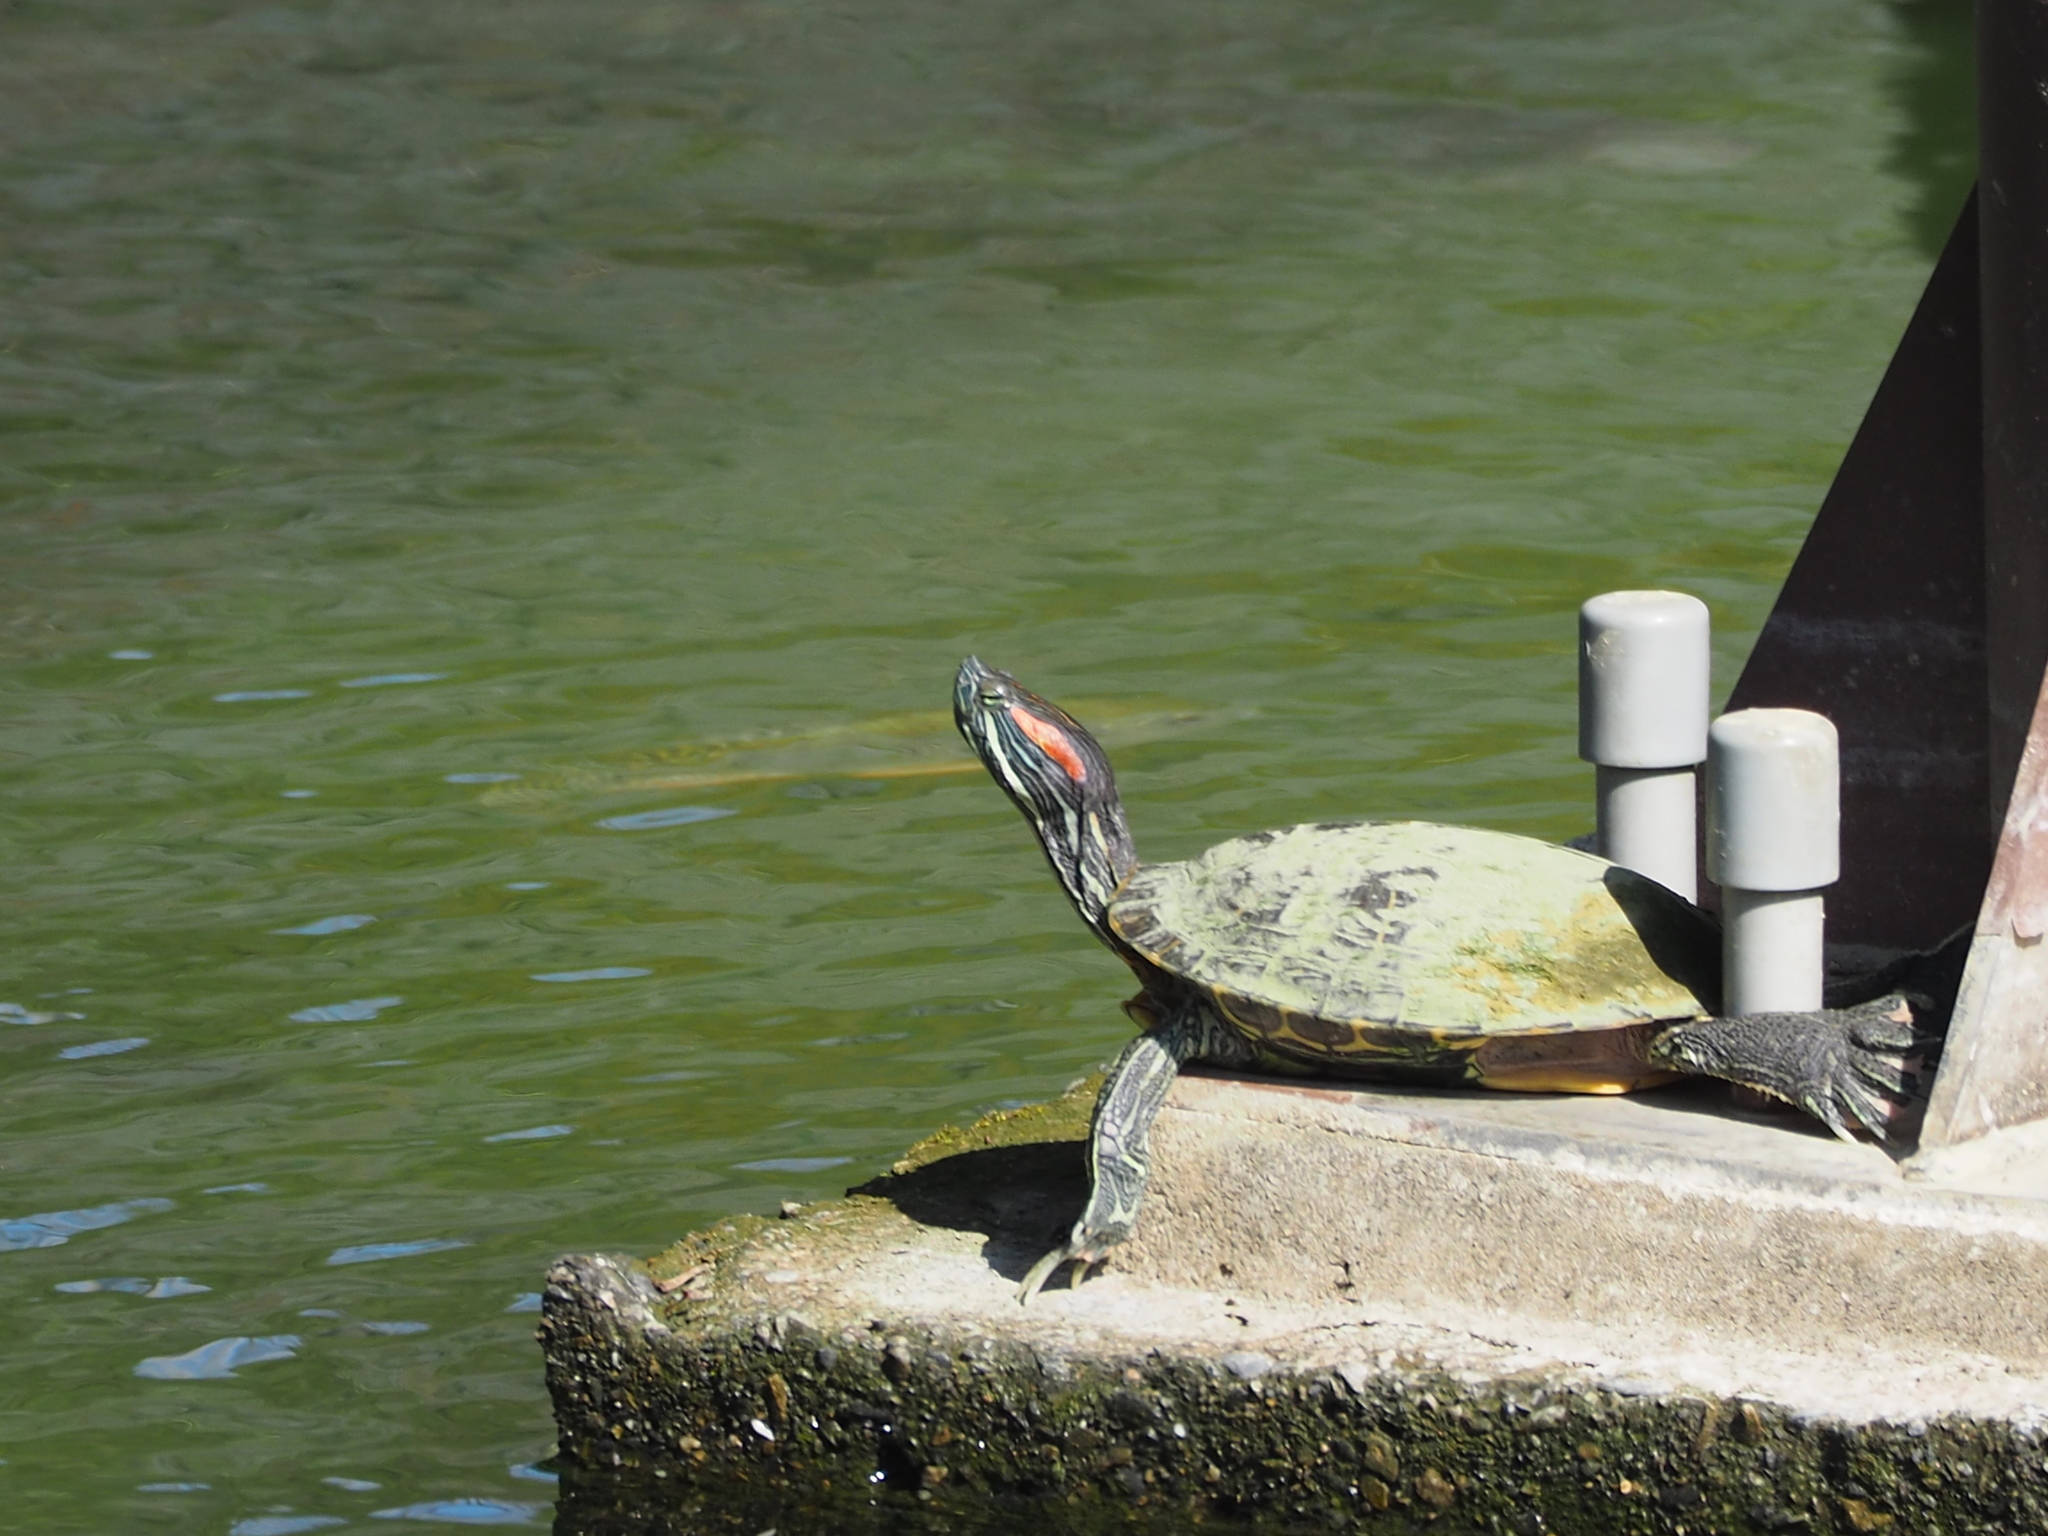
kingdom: Animalia
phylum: Chordata
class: Testudines
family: Emydidae
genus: Trachemys
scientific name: Trachemys scripta
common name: Slider
